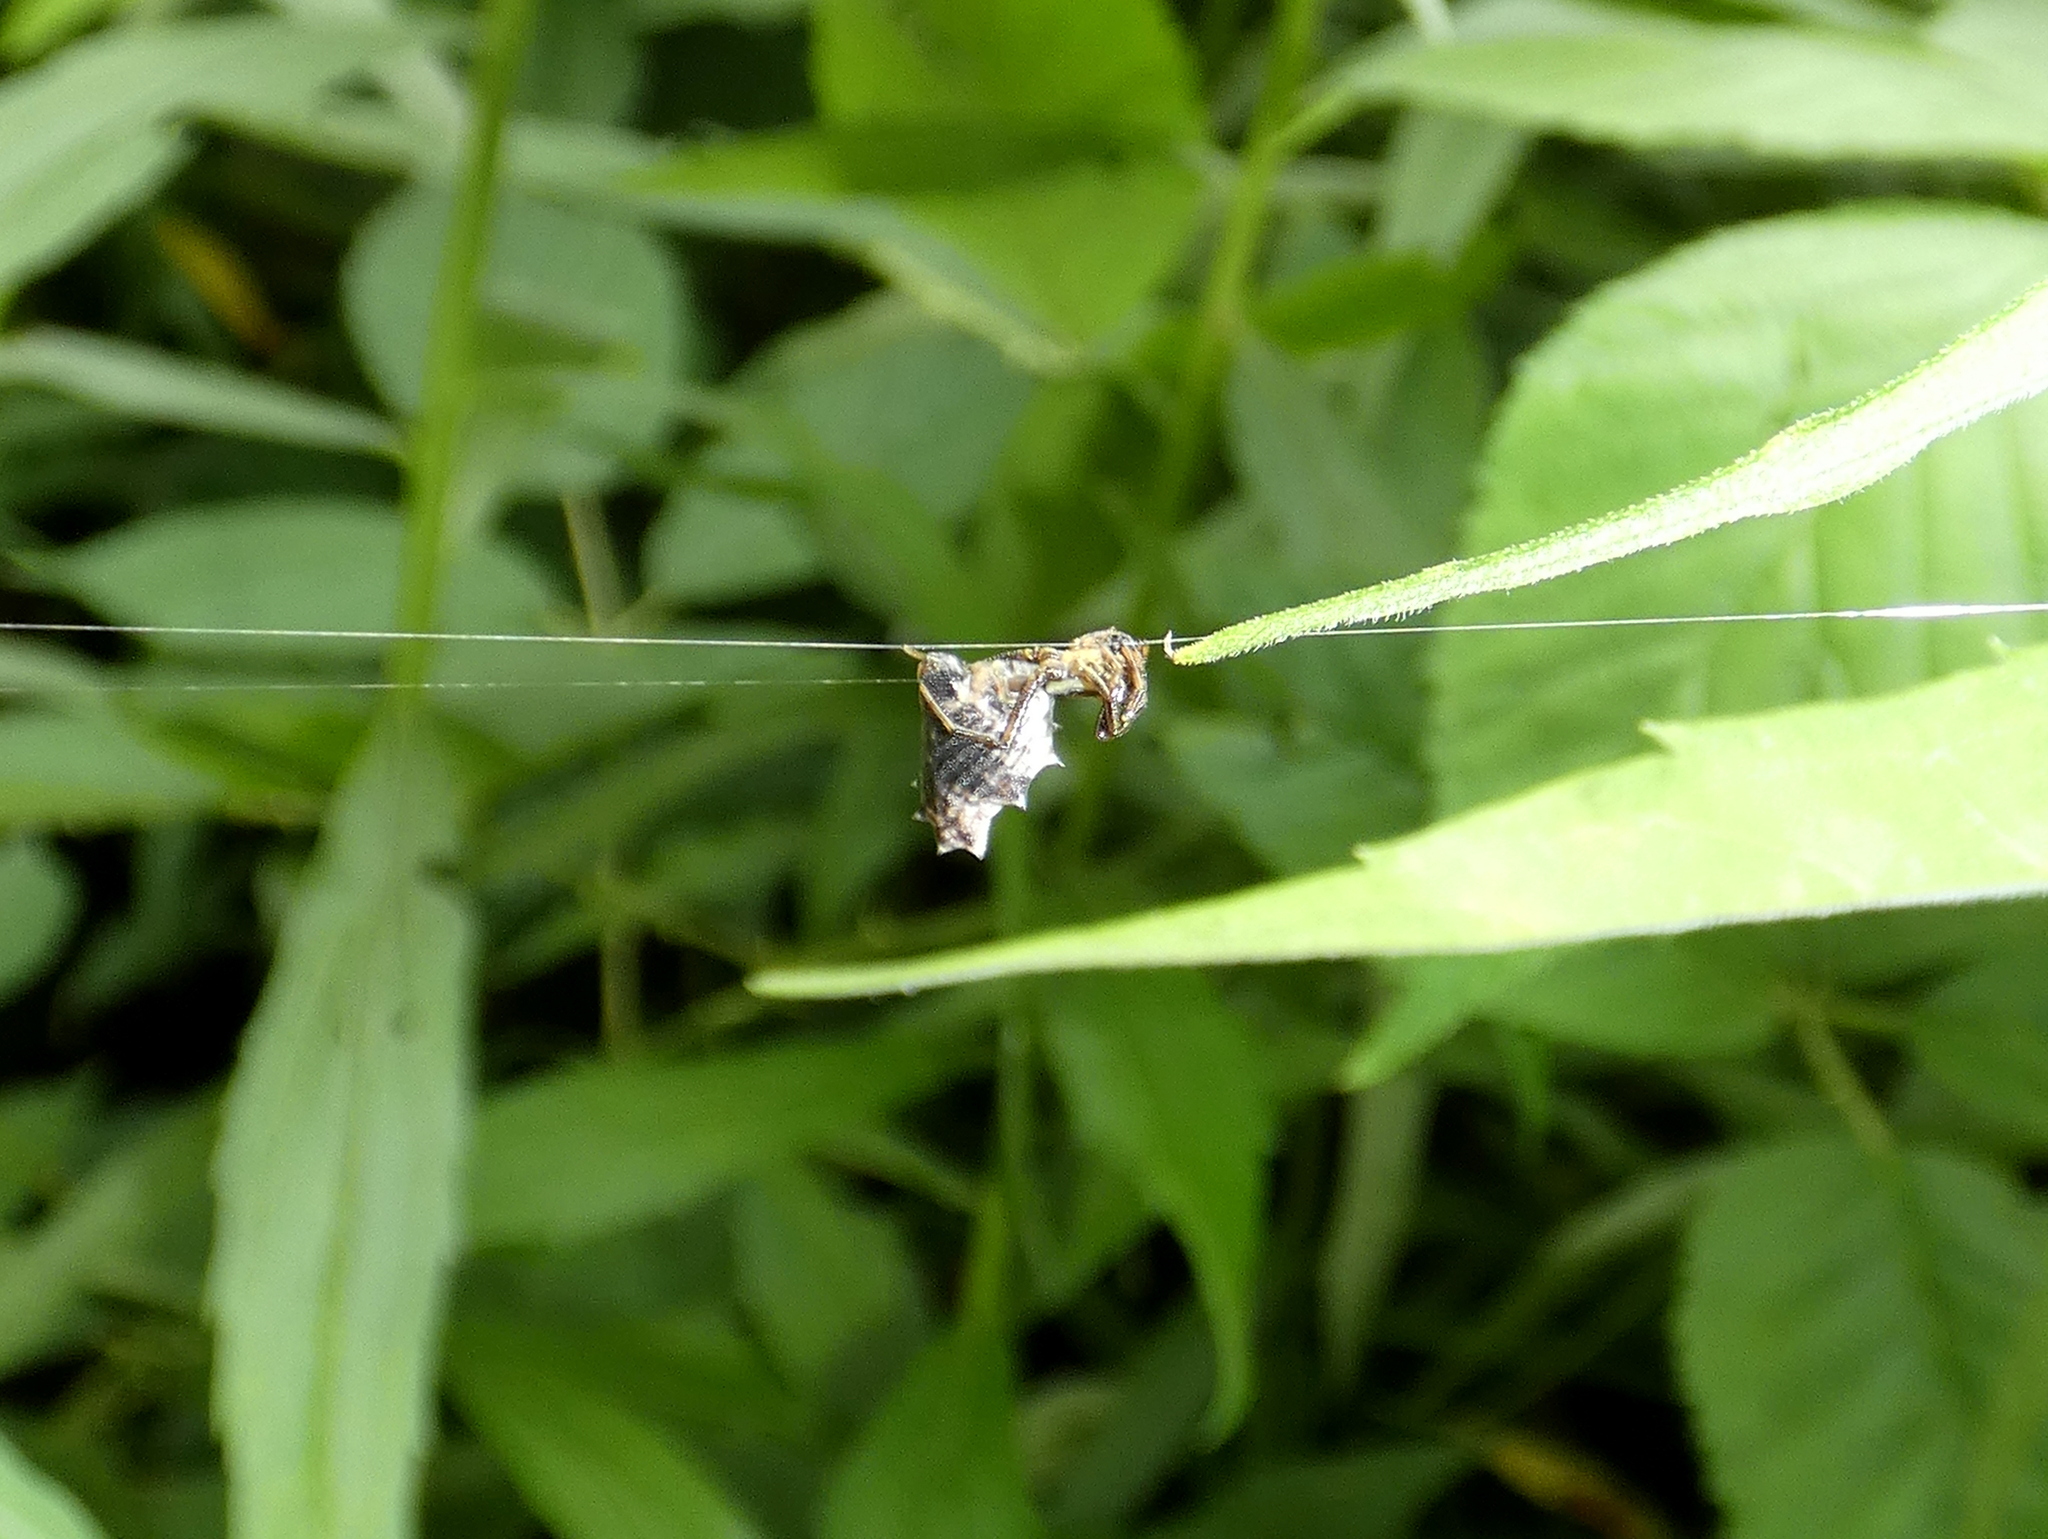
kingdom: Animalia
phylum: Arthropoda
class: Arachnida
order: Araneae
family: Araneidae
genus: Micrathena
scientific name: Micrathena gracilis
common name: Orb weavers
